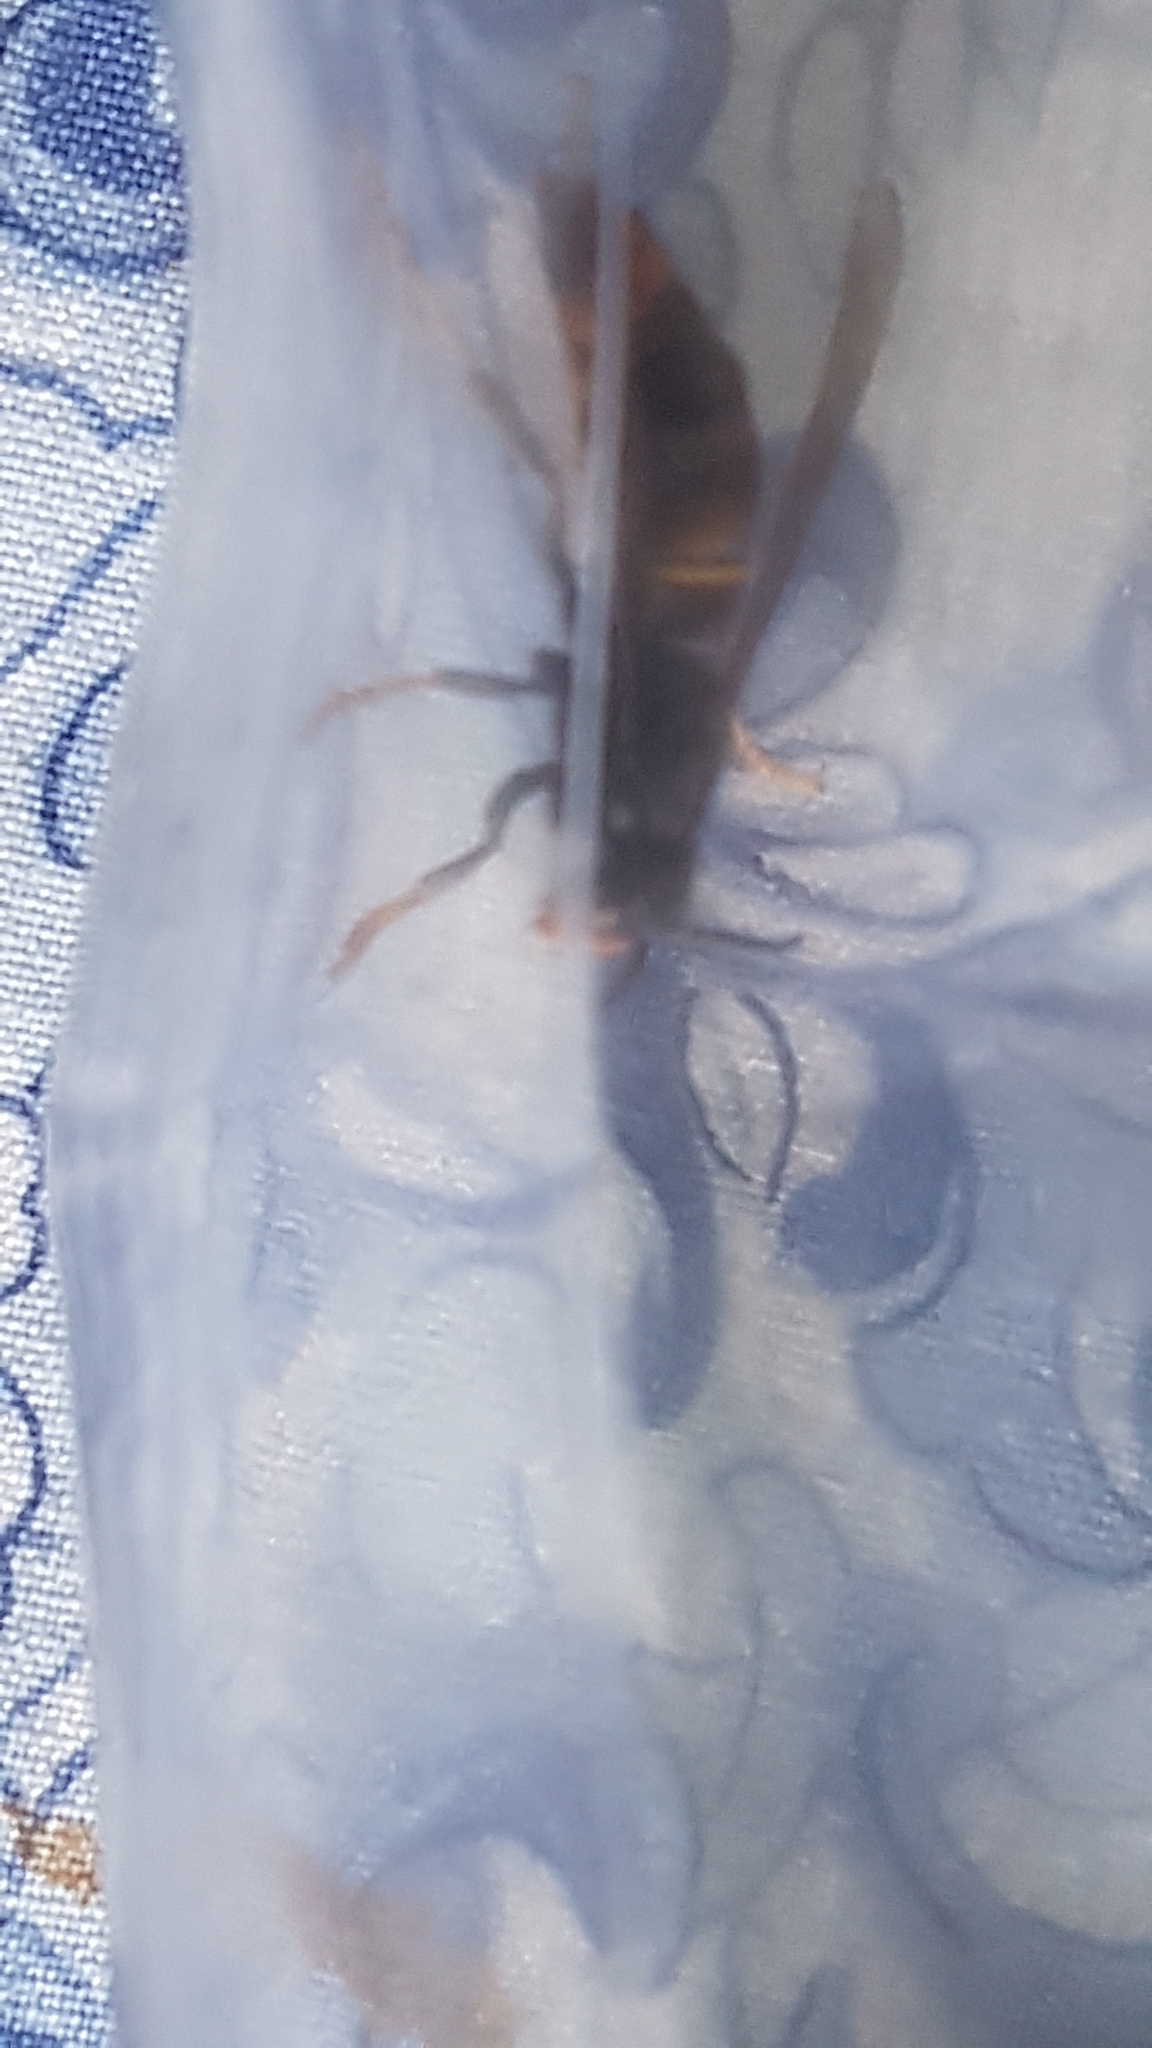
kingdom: Animalia
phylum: Arthropoda
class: Insecta
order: Hymenoptera
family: Vespidae
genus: Vespa
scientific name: Vespa velutina
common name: Asian hornet
